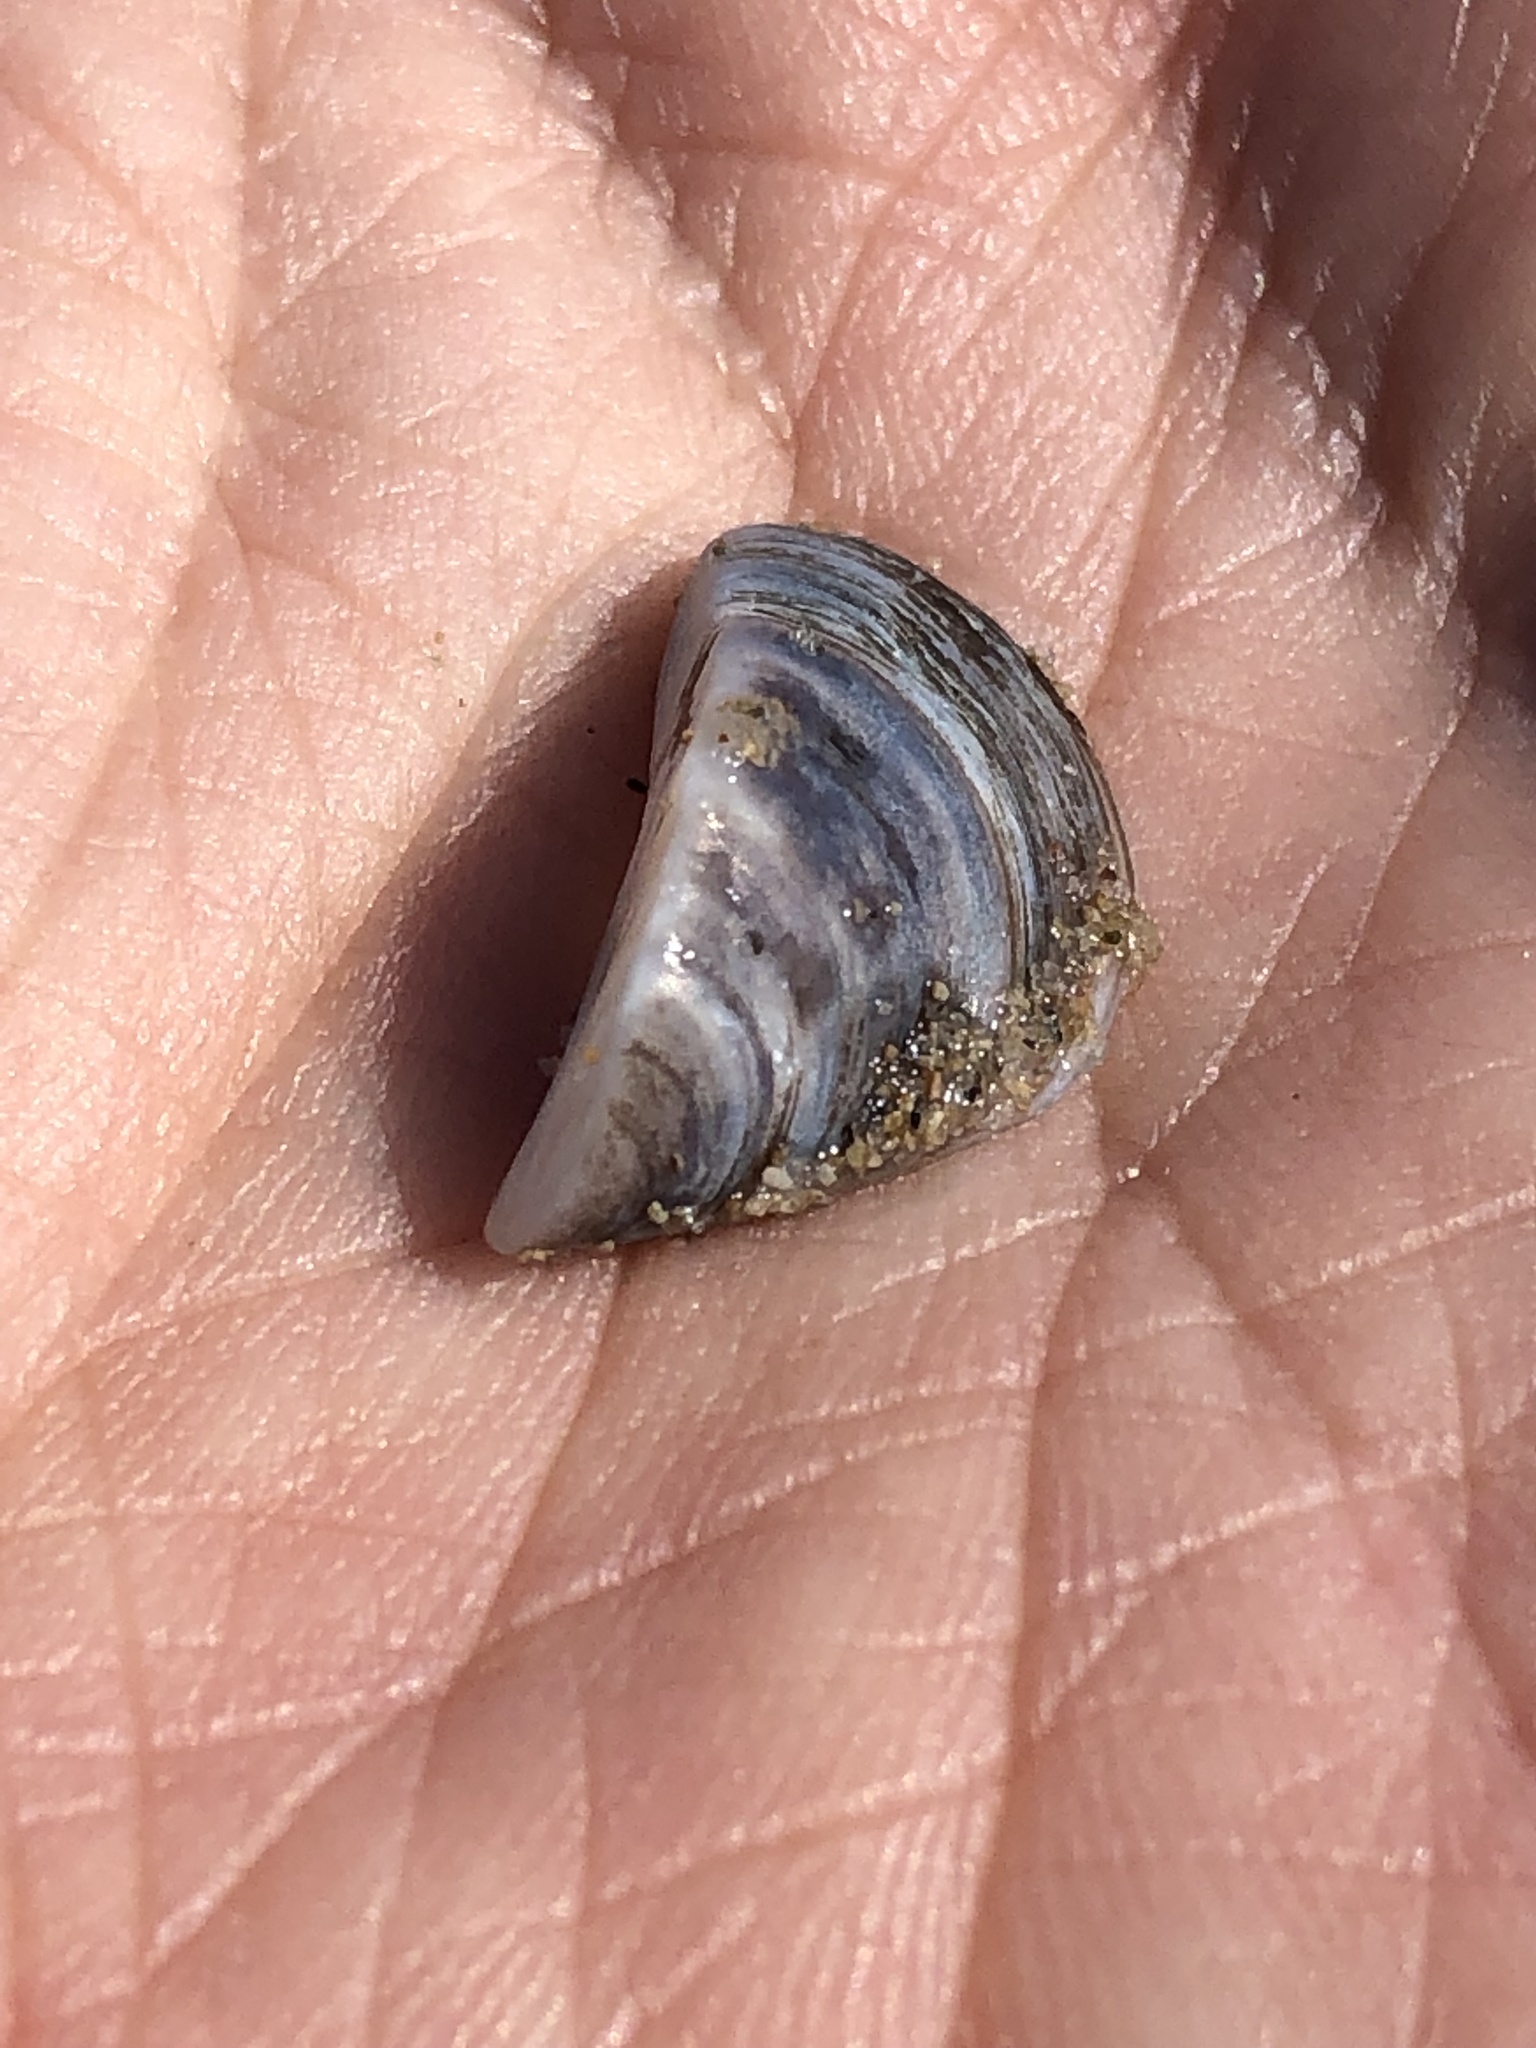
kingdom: Animalia
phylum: Mollusca
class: Bivalvia
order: Myida
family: Dreissenidae
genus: Dreissena
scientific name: Dreissena polymorpha
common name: Zebra mussel
